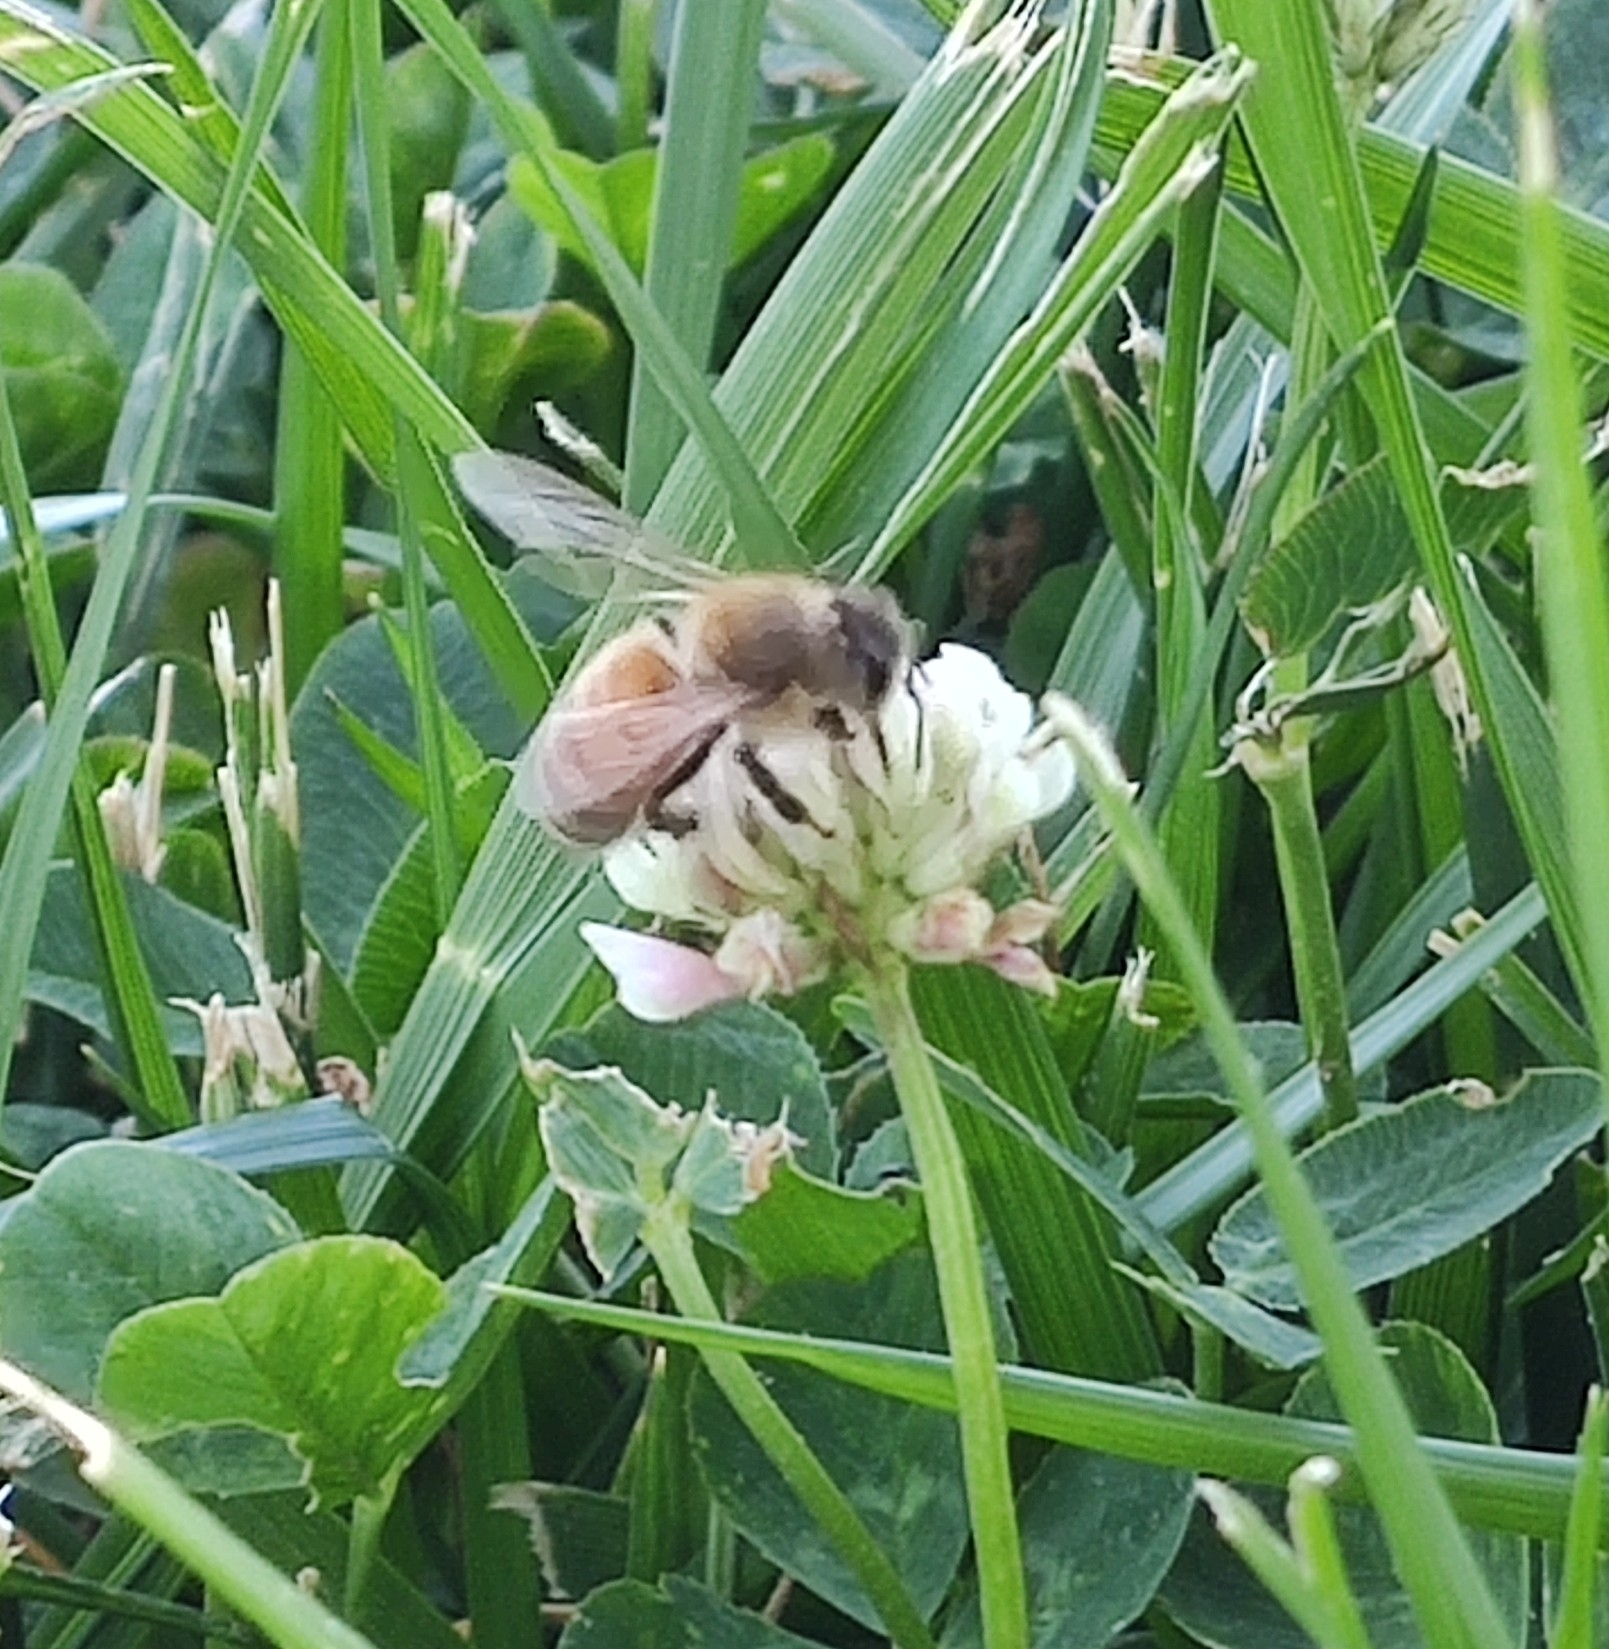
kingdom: Animalia
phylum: Arthropoda
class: Insecta
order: Hymenoptera
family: Apidae
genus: Apis
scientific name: Apis mellifera
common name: Honey bee
